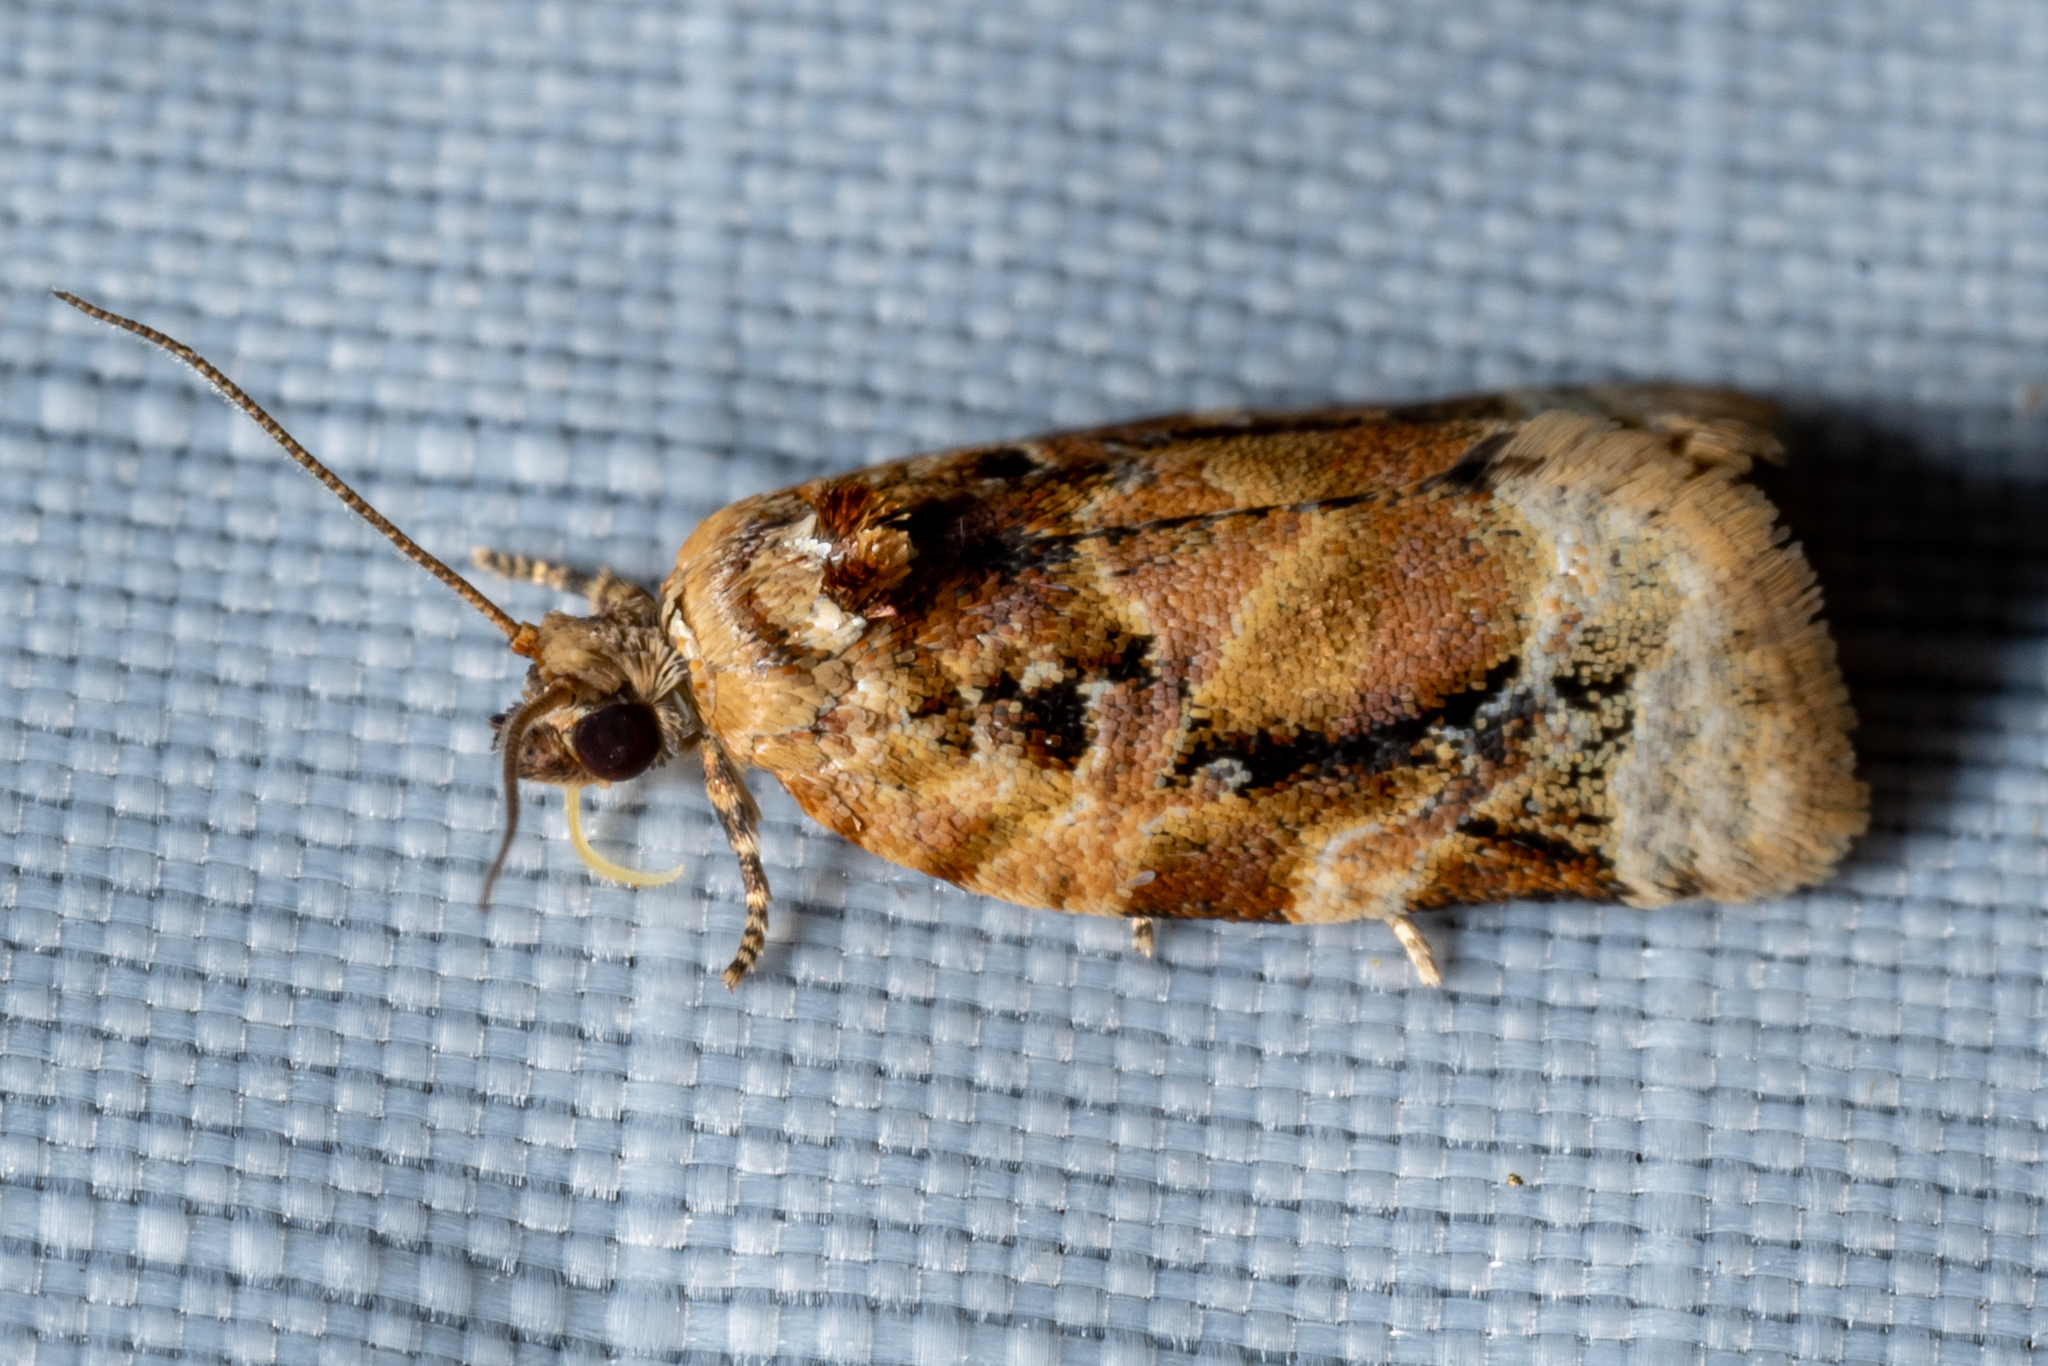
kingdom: Animalia
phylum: Arthropoda
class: Insecta
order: Lepidoptera
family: Tortricidae
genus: Argyrotaenia
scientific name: Argyrotaenia velutinana
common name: Red-banded leafroller moth
